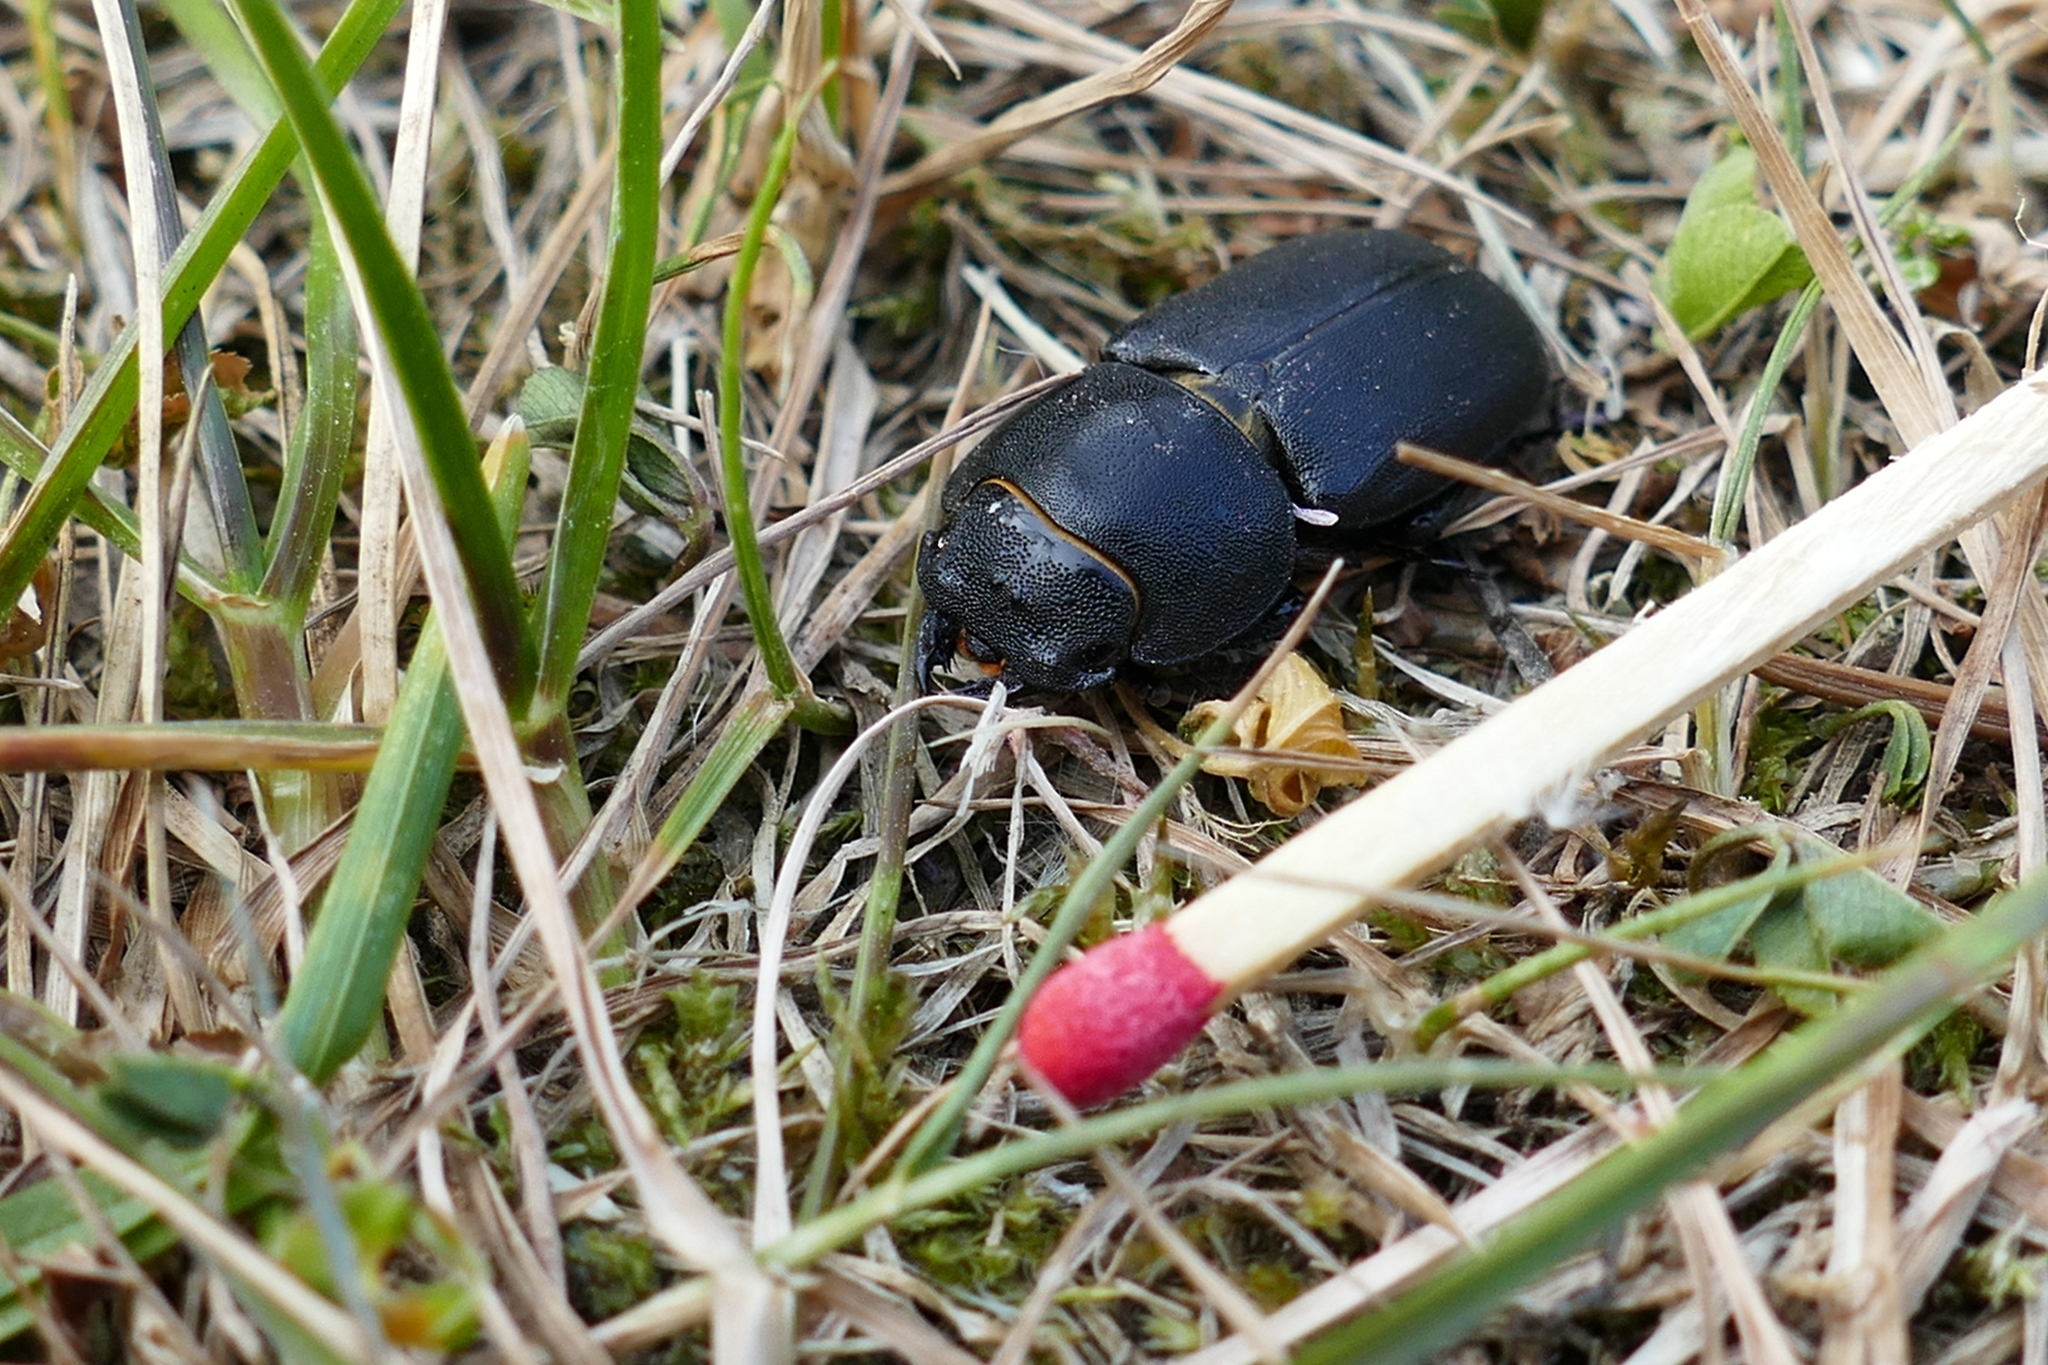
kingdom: Animalia
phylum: Arthropoda
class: Insecta
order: Coleoptera
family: Lucanidae
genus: Dorcus
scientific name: Dorcus parallelipipedus
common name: Lesser stag beetle
